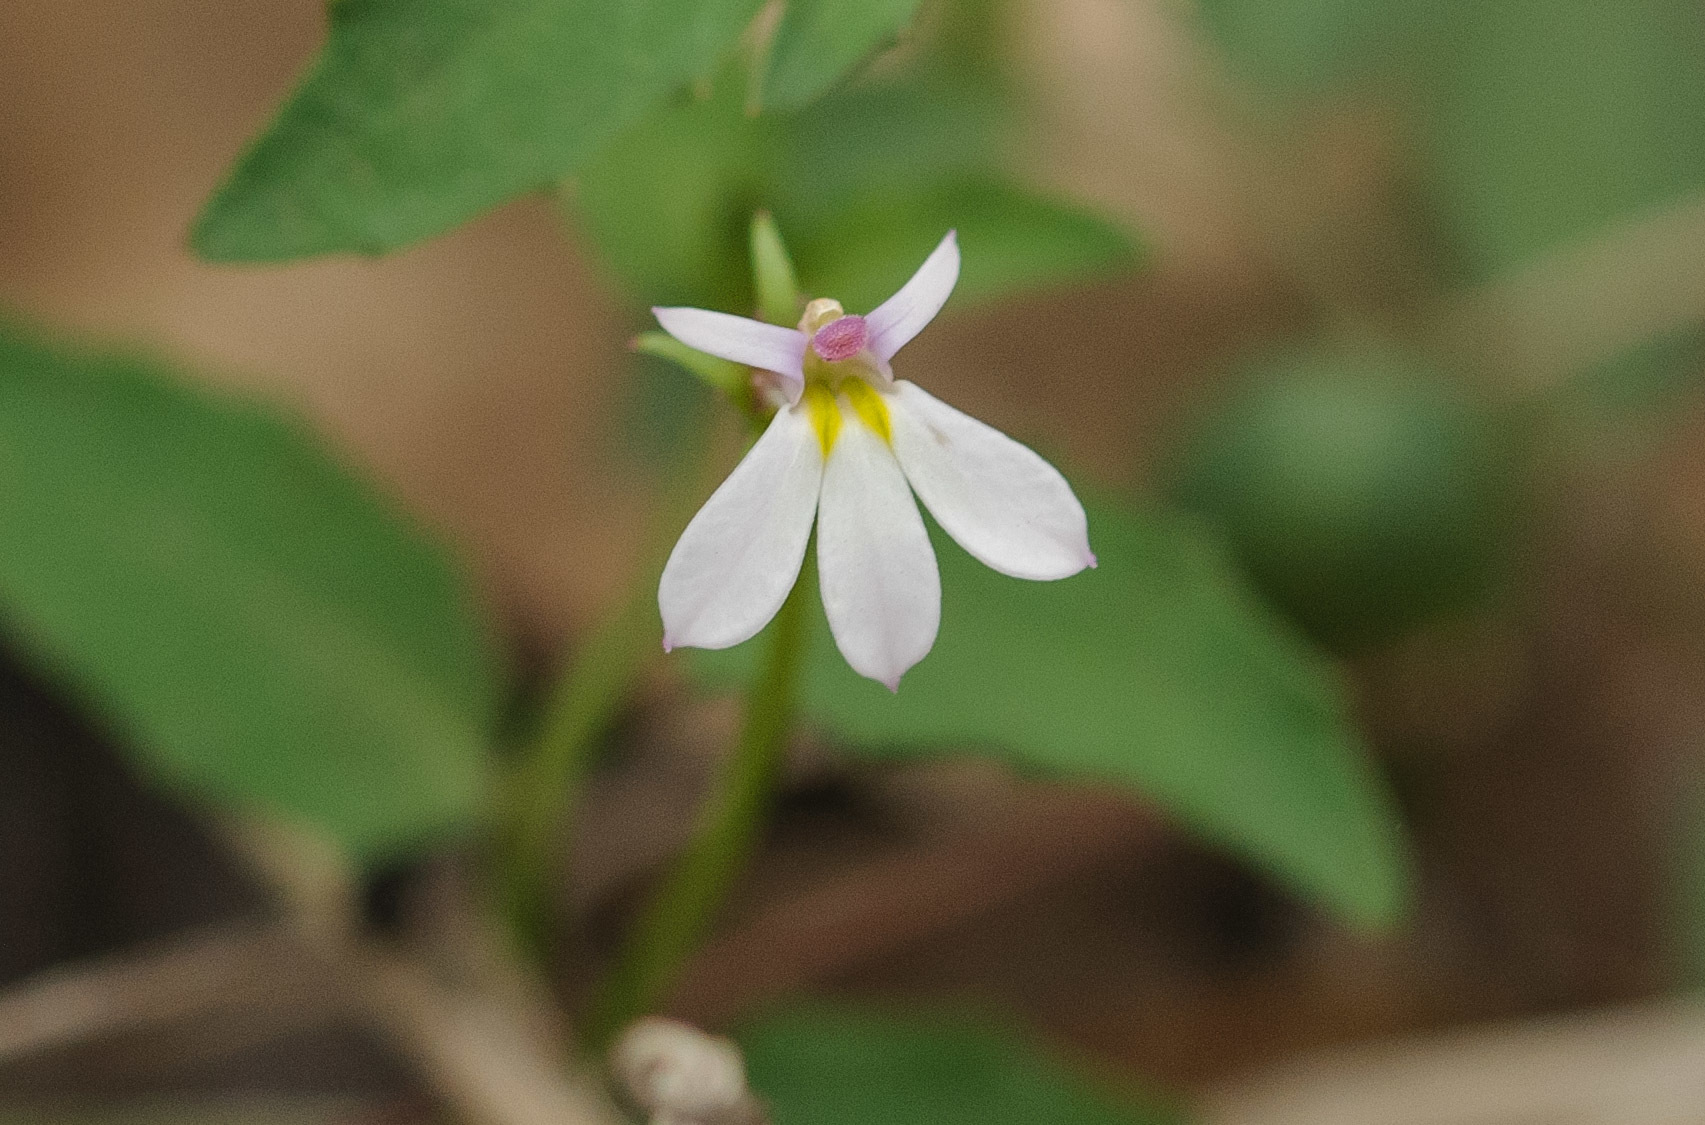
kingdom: Plantae
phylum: Tracheophyta
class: Magnoliopsida
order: Asterales
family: Campanulaceae
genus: Lobelia
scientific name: Lobelia purpurascens
